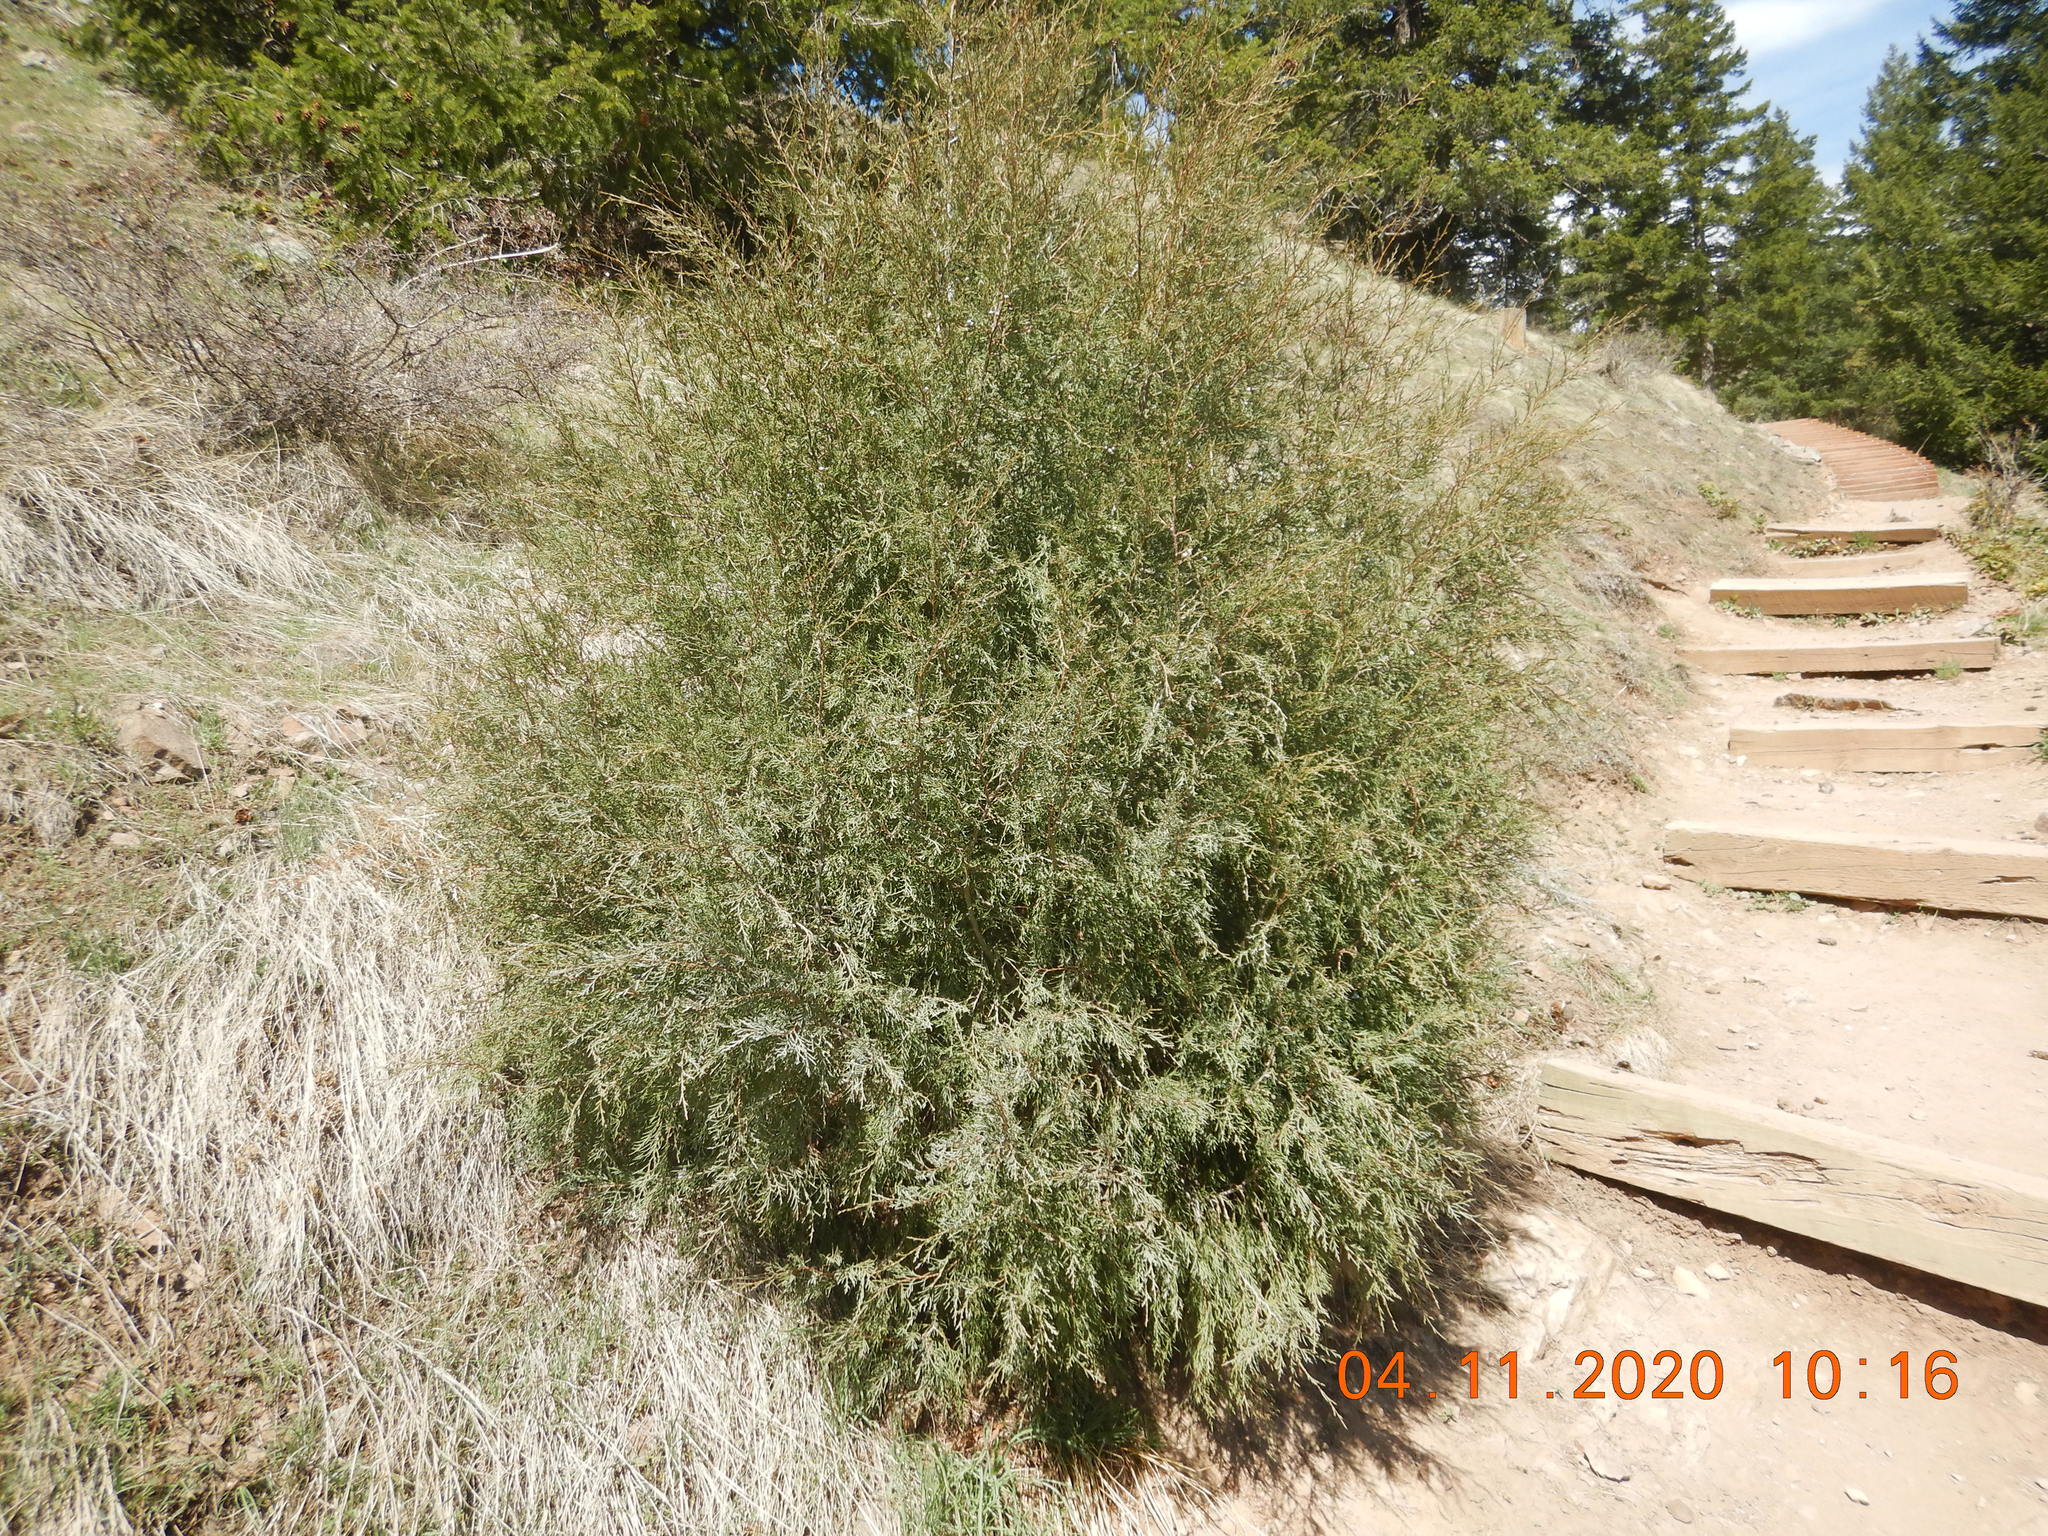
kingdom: Plantae
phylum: Tracheophyta
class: Pinopsida
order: Pinales
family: Cupressaceae
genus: Juniperus
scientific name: Juniperus scopulorum
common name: Rocky mountain juniper
